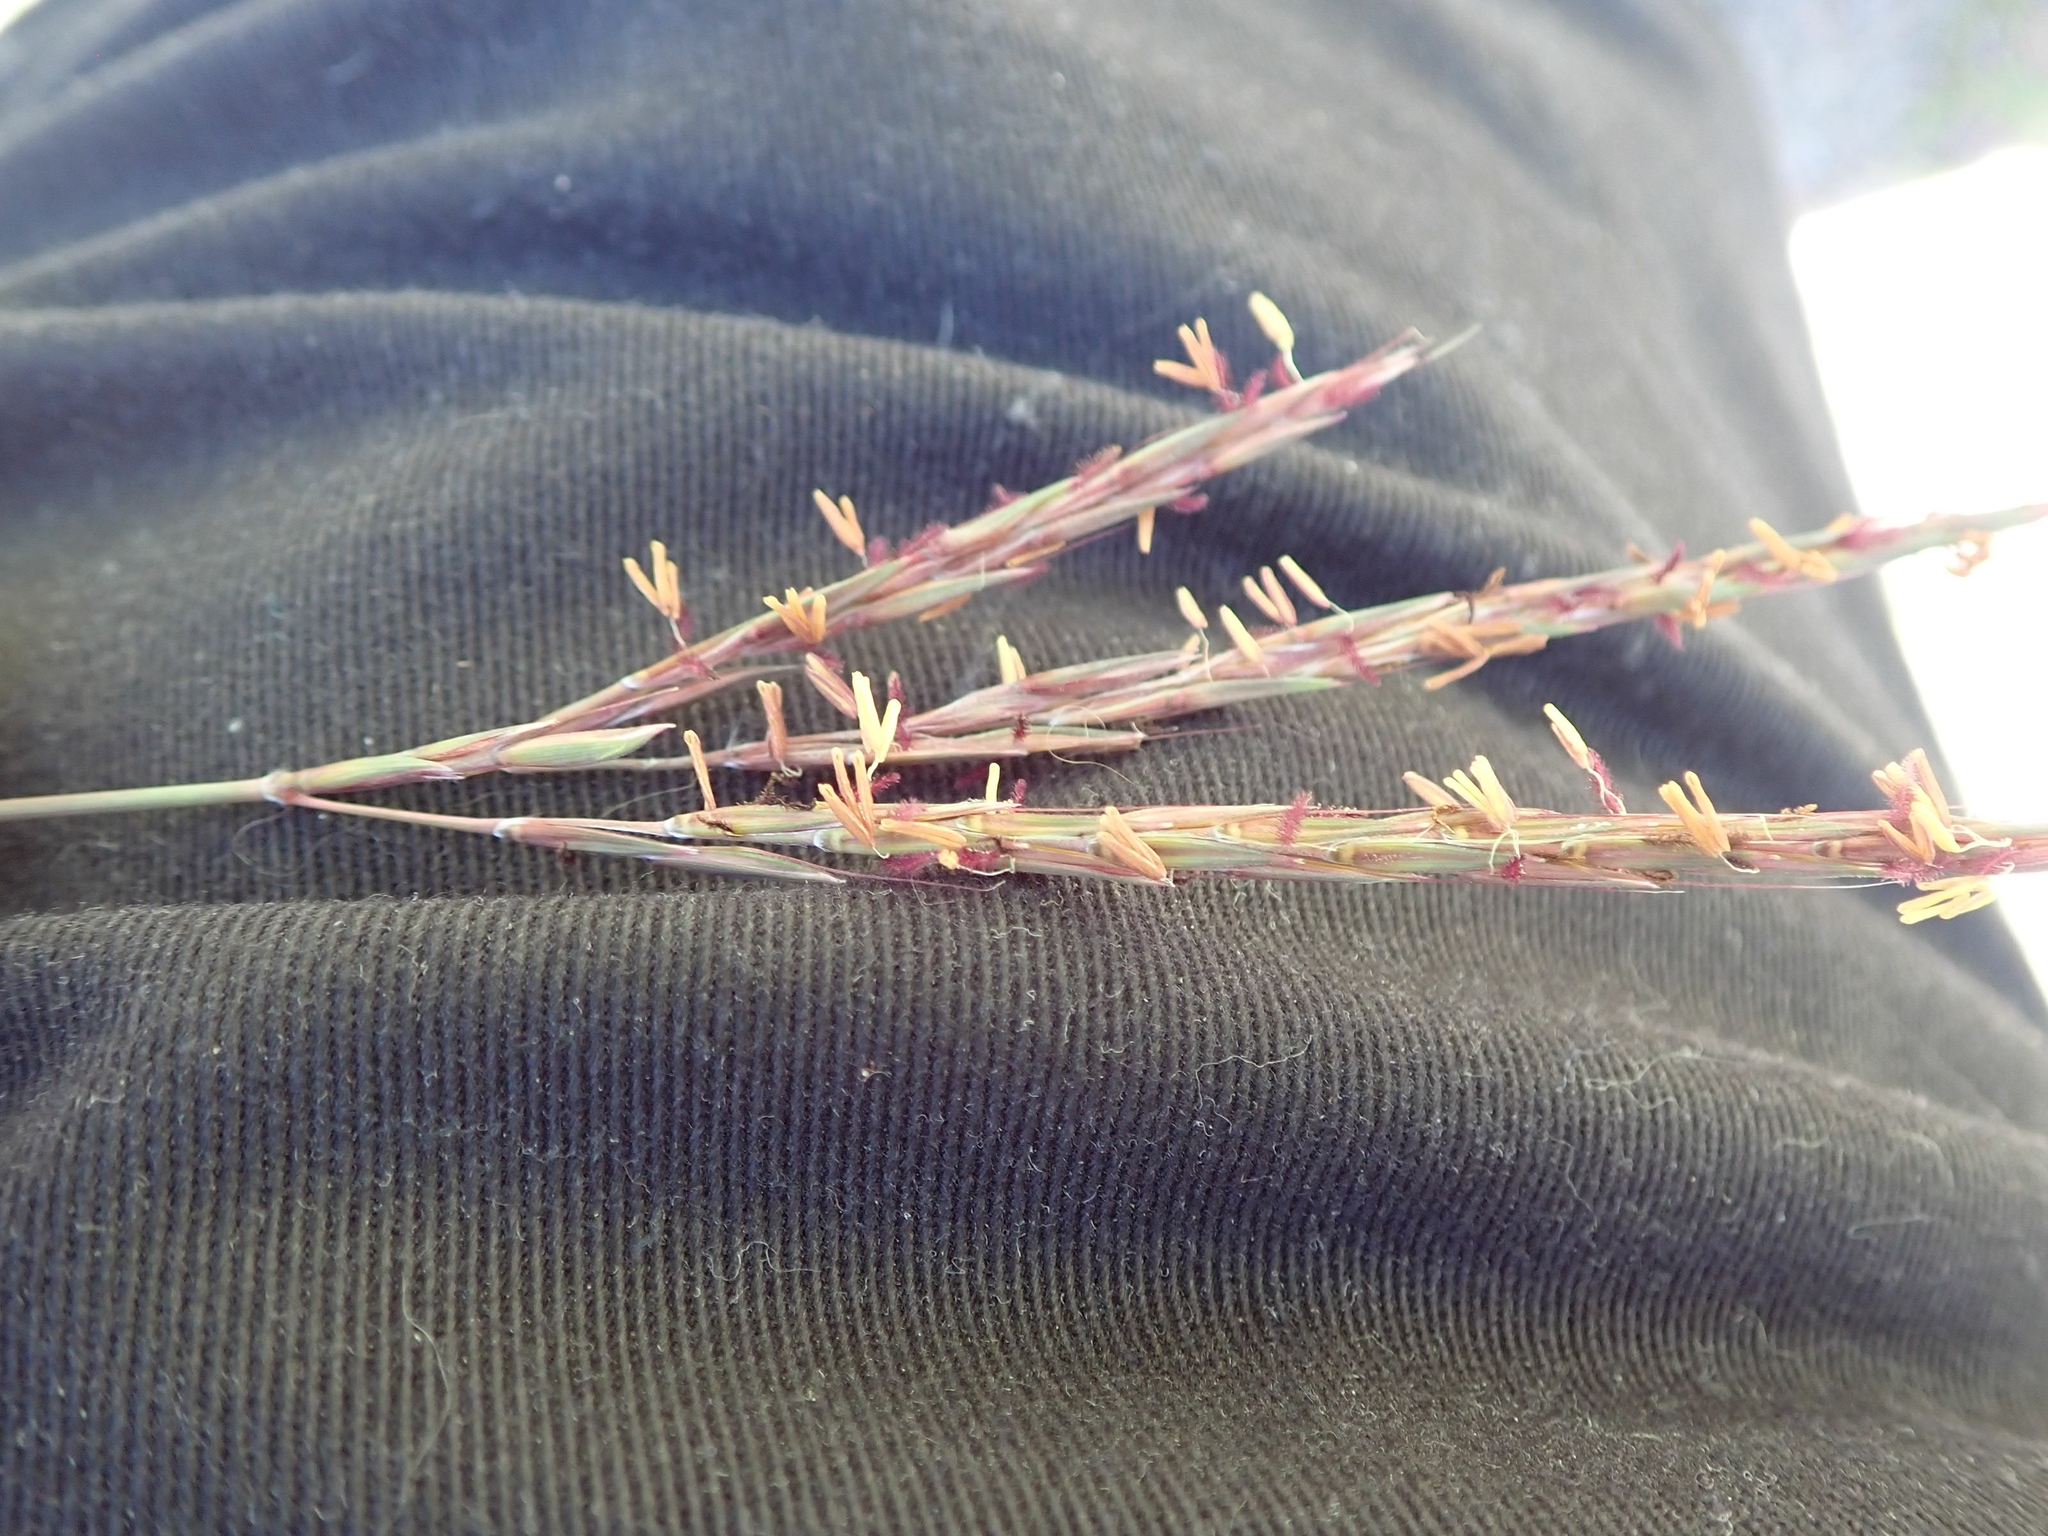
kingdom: Plantae
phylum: Tracheophyta
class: Liliopsida
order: Poales
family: Poaceae
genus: Andropogon
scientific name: Andropogon gerardi
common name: Big bluestem
